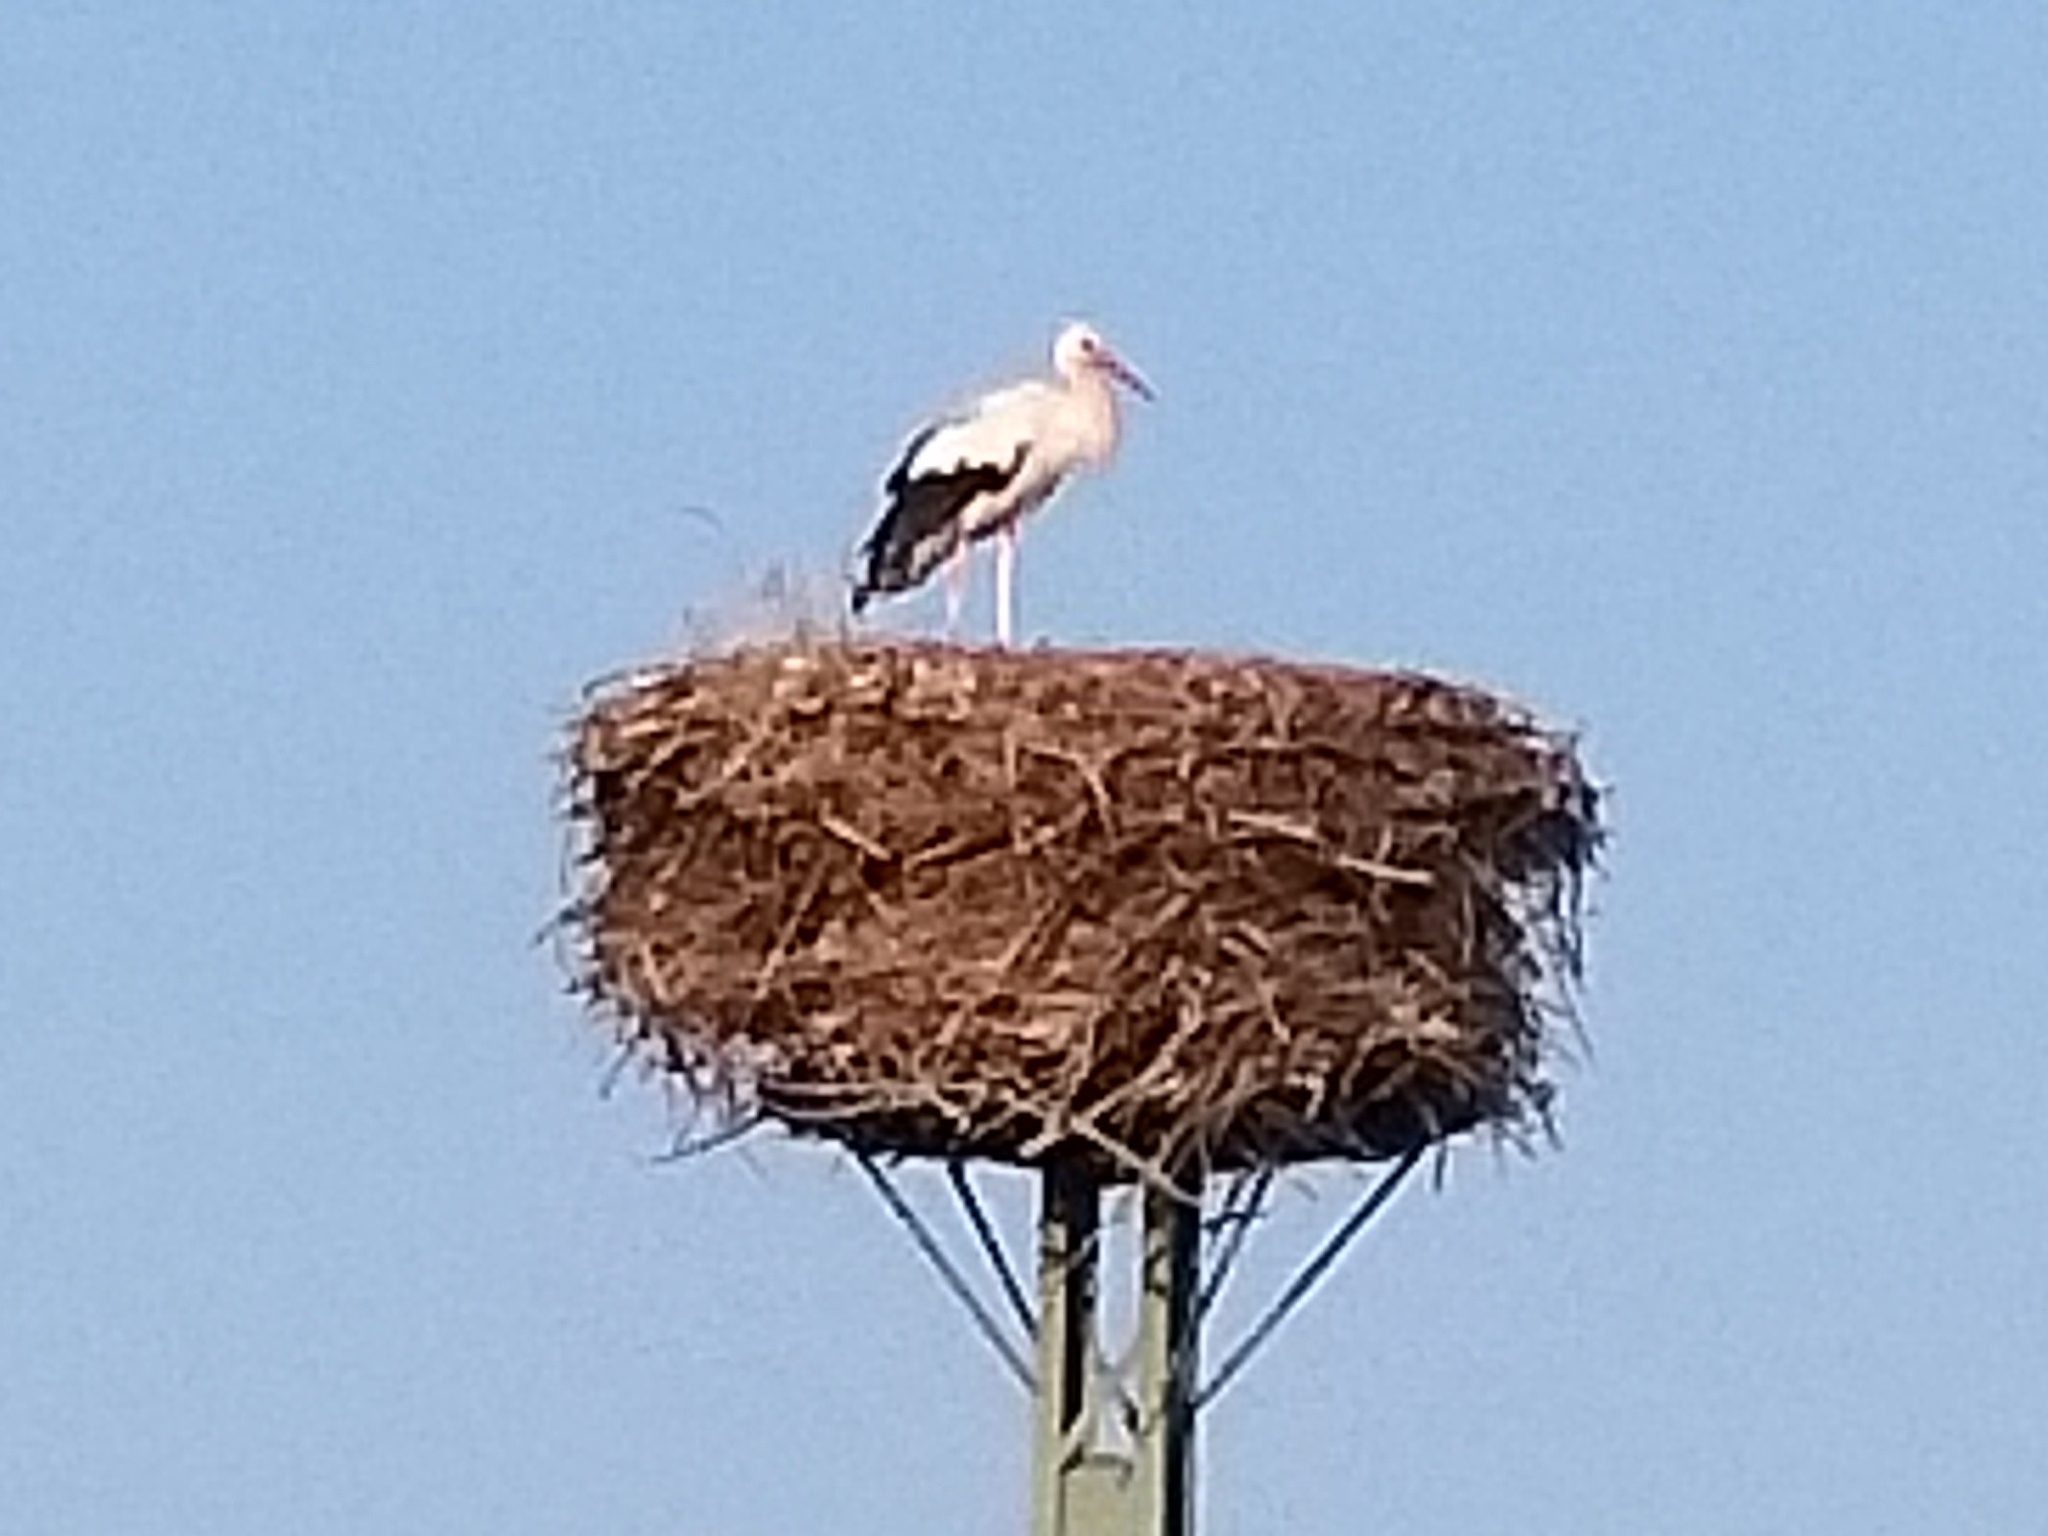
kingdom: Animalia
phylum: Chordata
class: Aves
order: Ciconiiformes
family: Ciconiidae
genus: Ciconia
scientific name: Ciconia ciconia
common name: White stork
